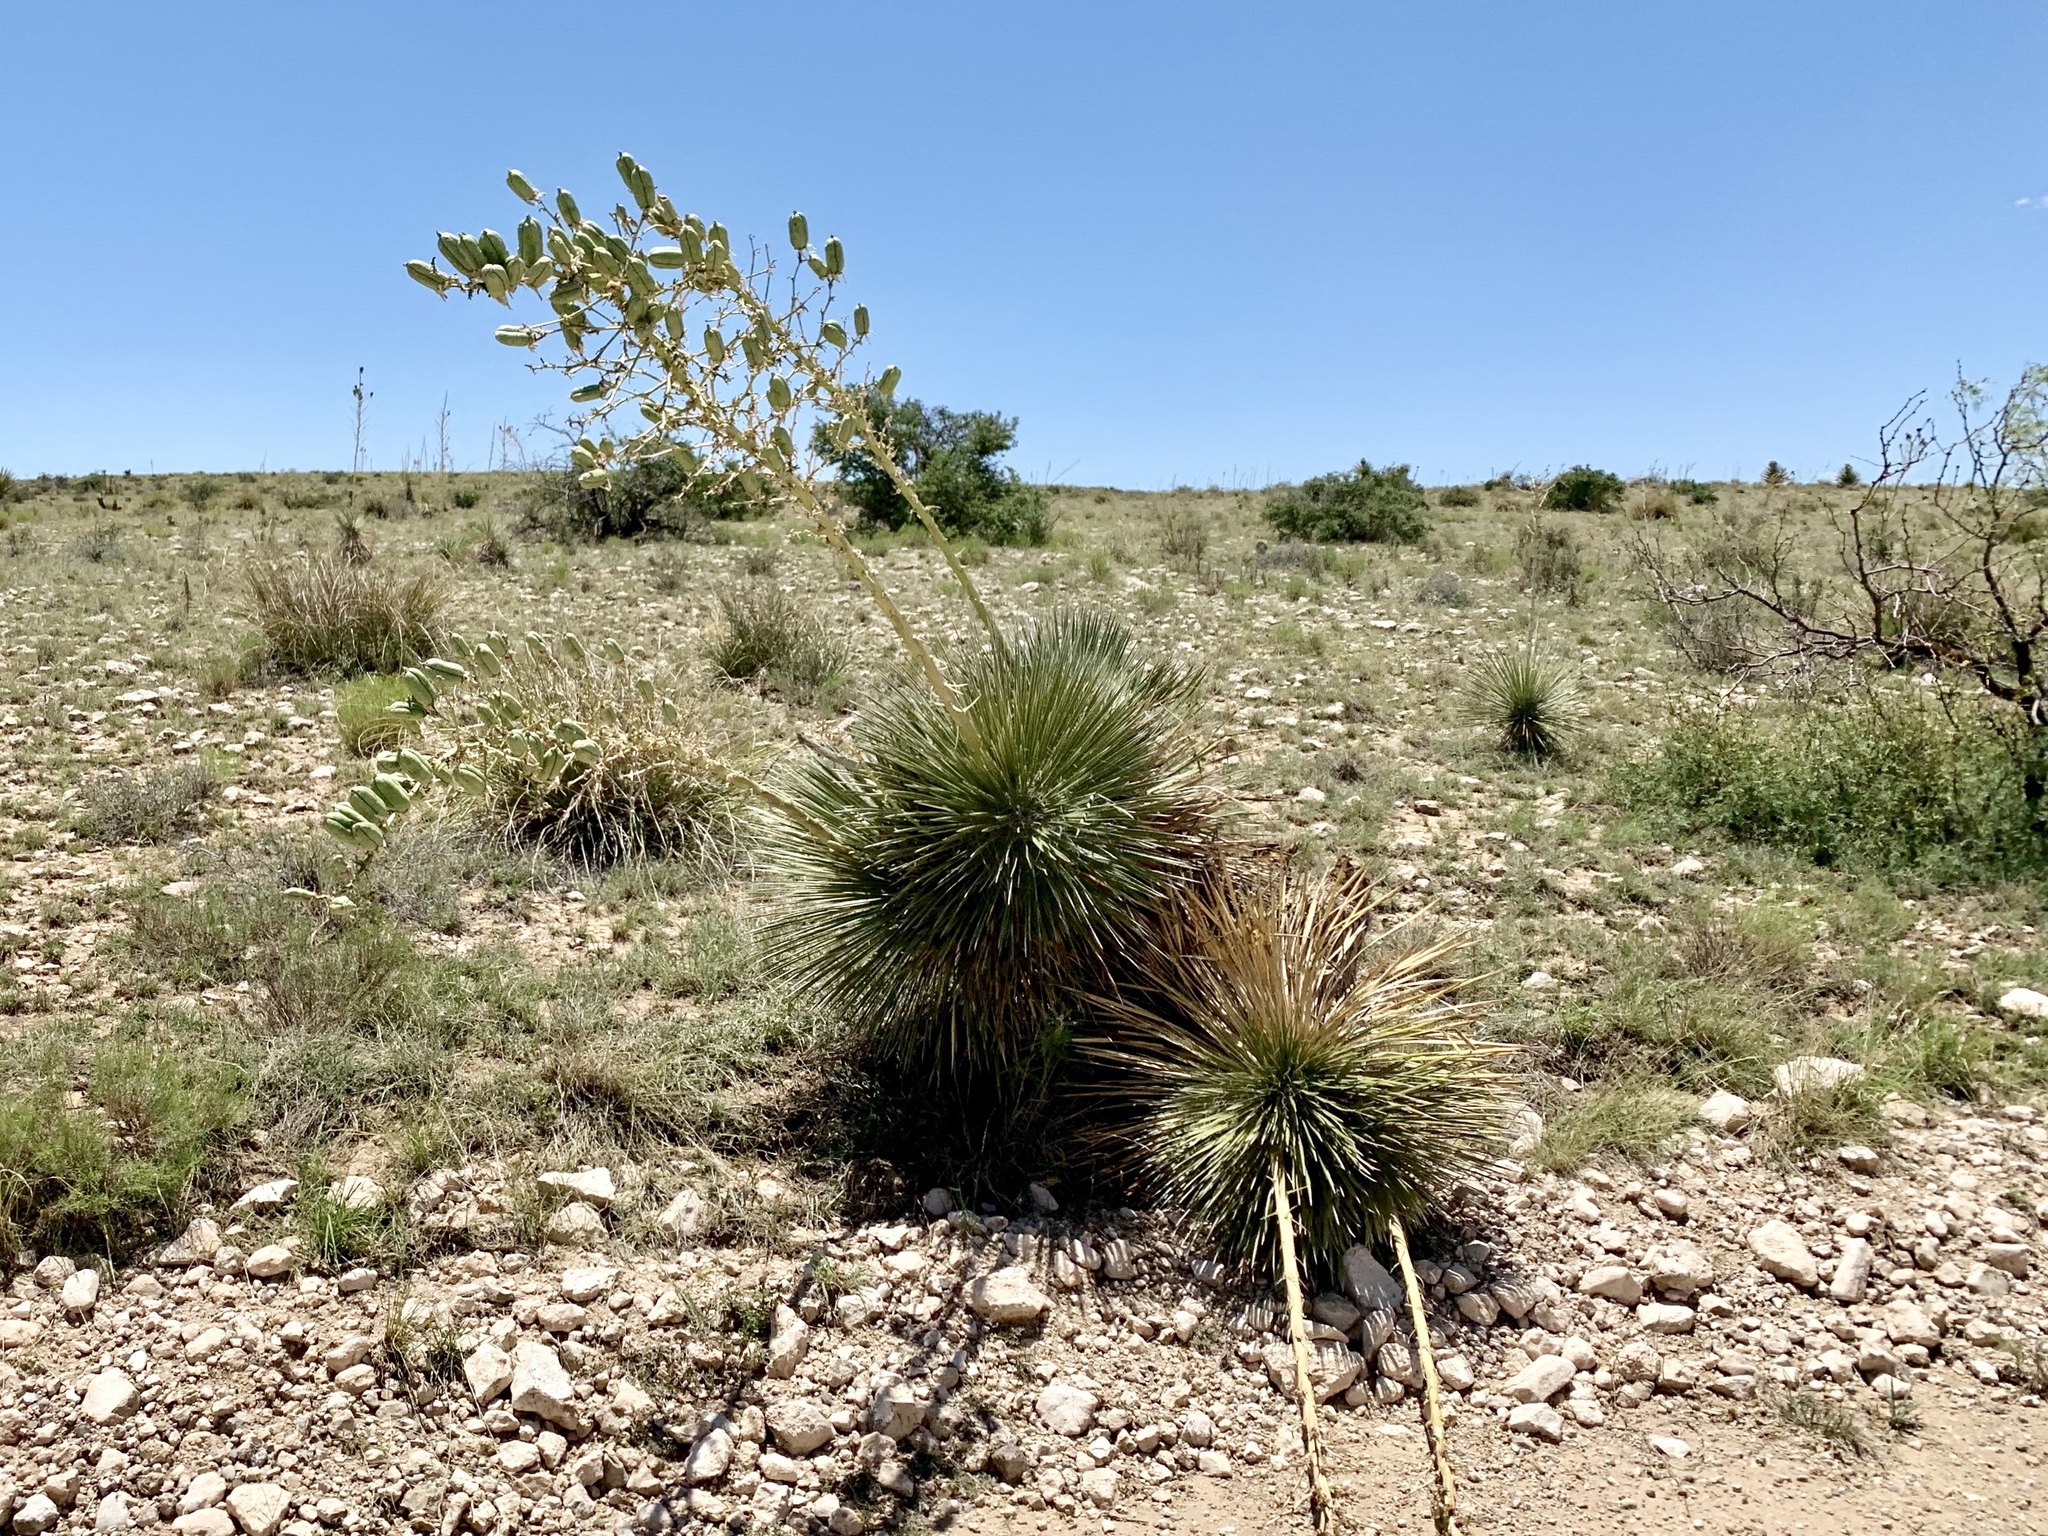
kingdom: Plantae
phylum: Tracheophyta
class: Liliopsida
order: Asparagales
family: Asparagaceae
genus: Yucca
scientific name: Yucca elata
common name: Palmella
